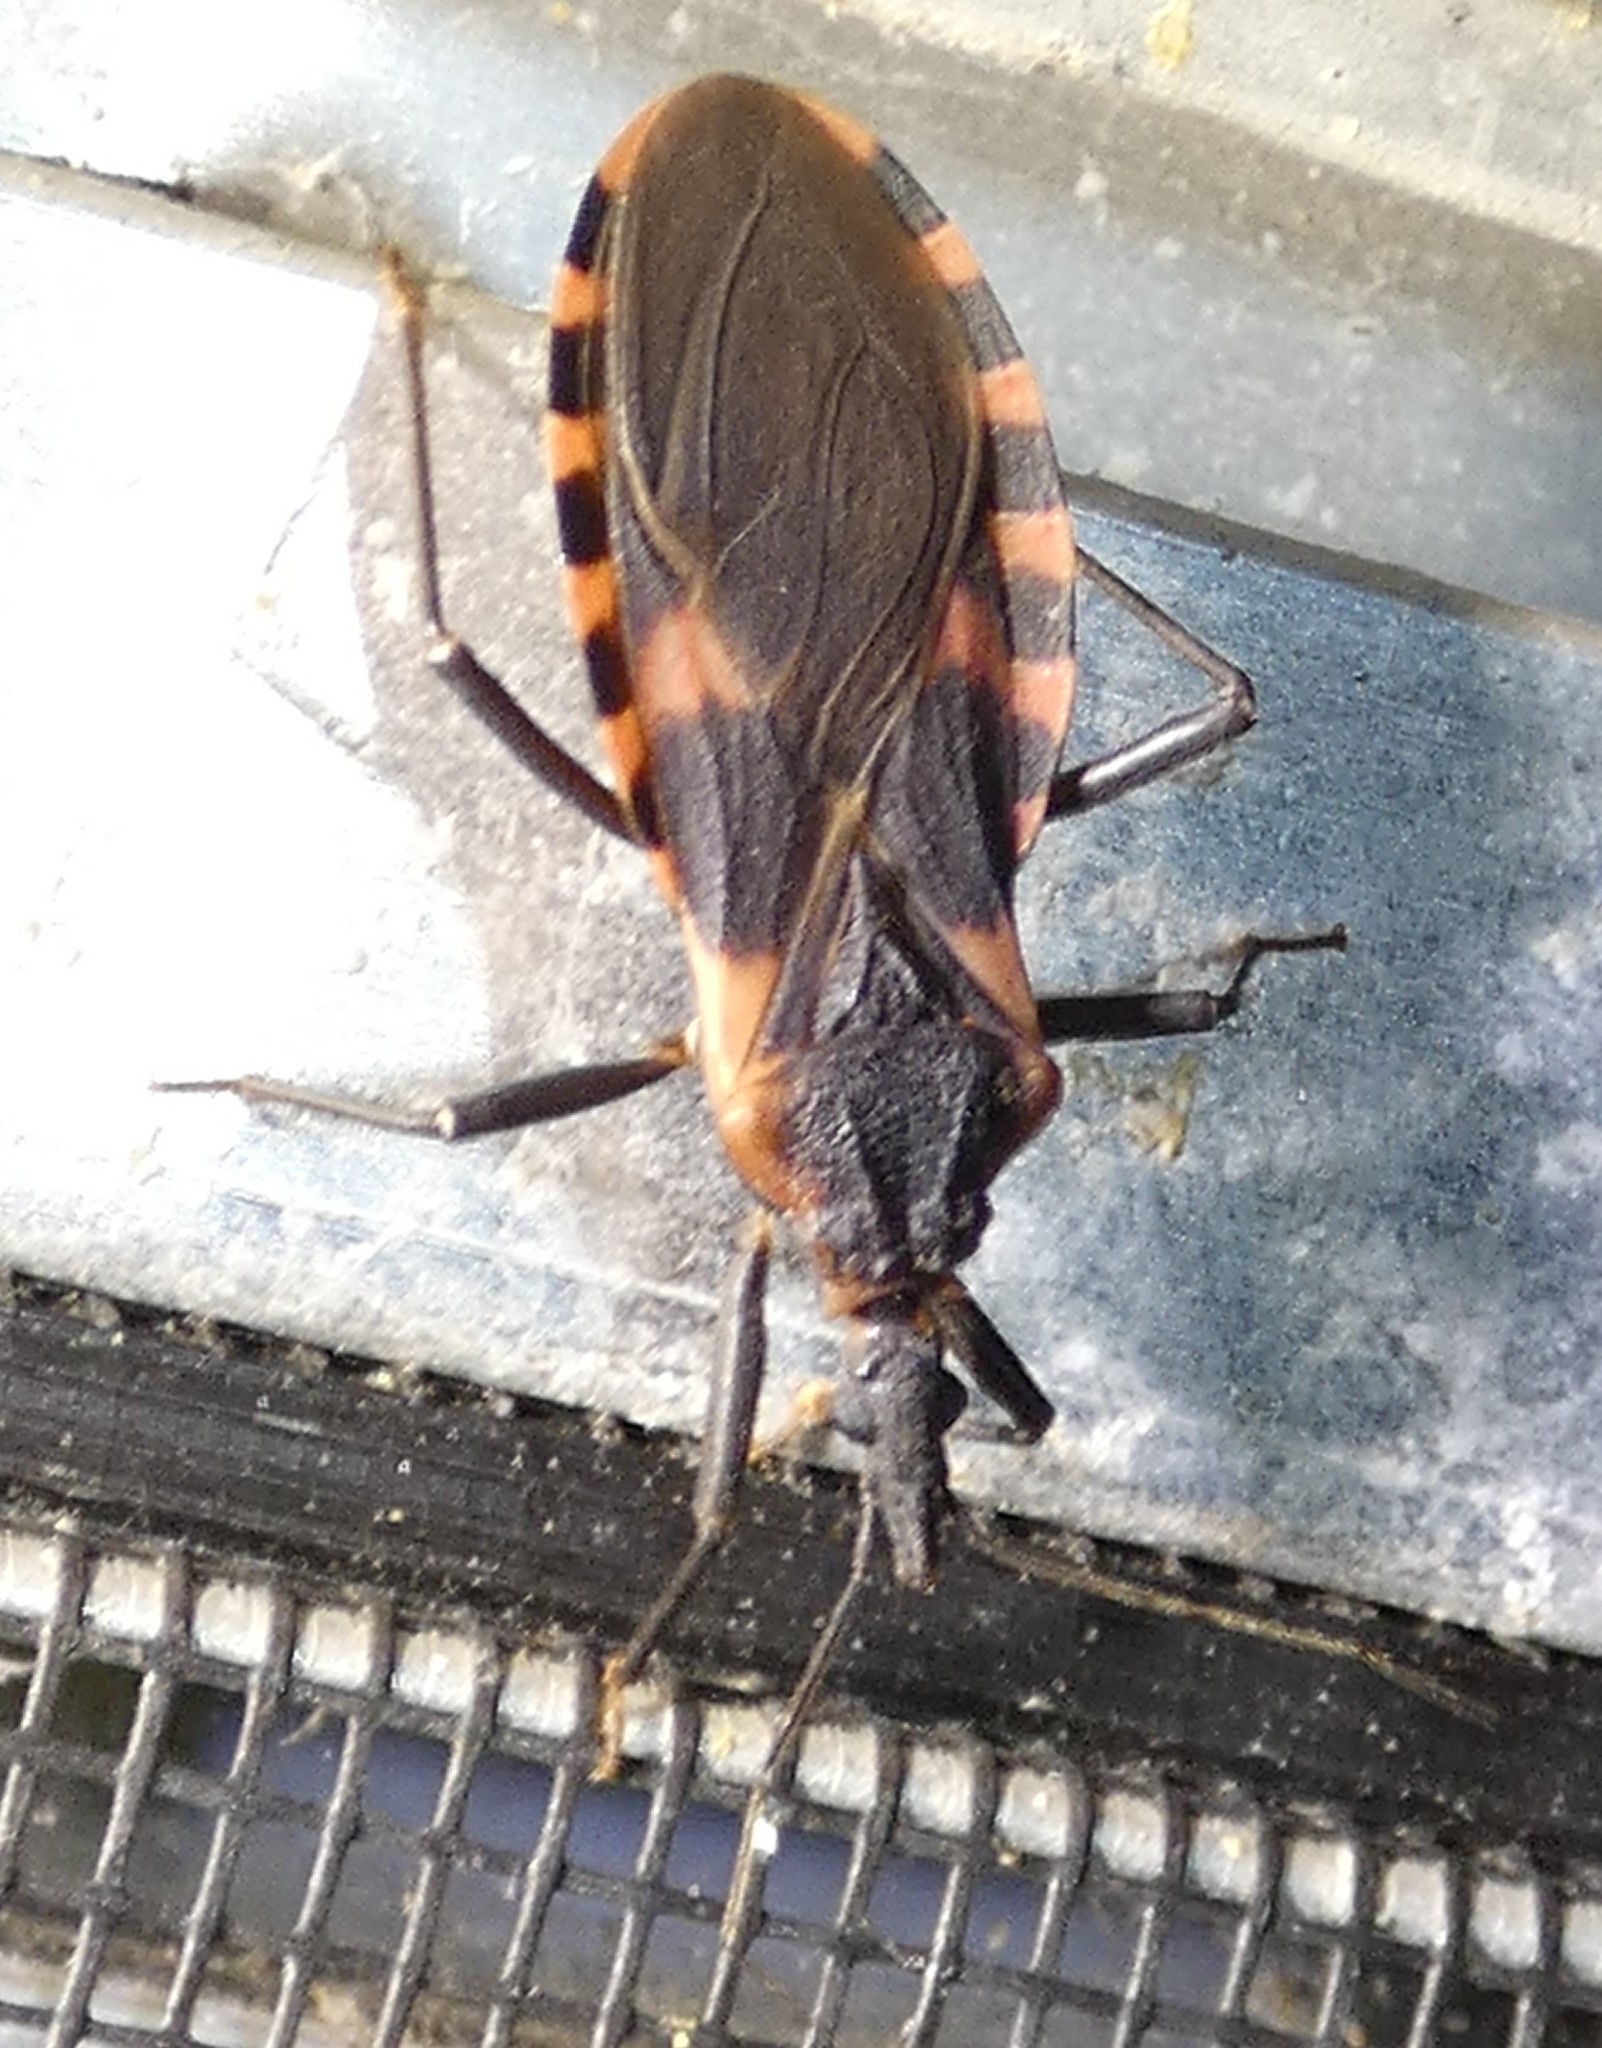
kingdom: Animalia
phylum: Arthropoda
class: Insecta
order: Hemiptera
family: Reduviidae
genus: Triatoma
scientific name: Triatoma sanguisuga
